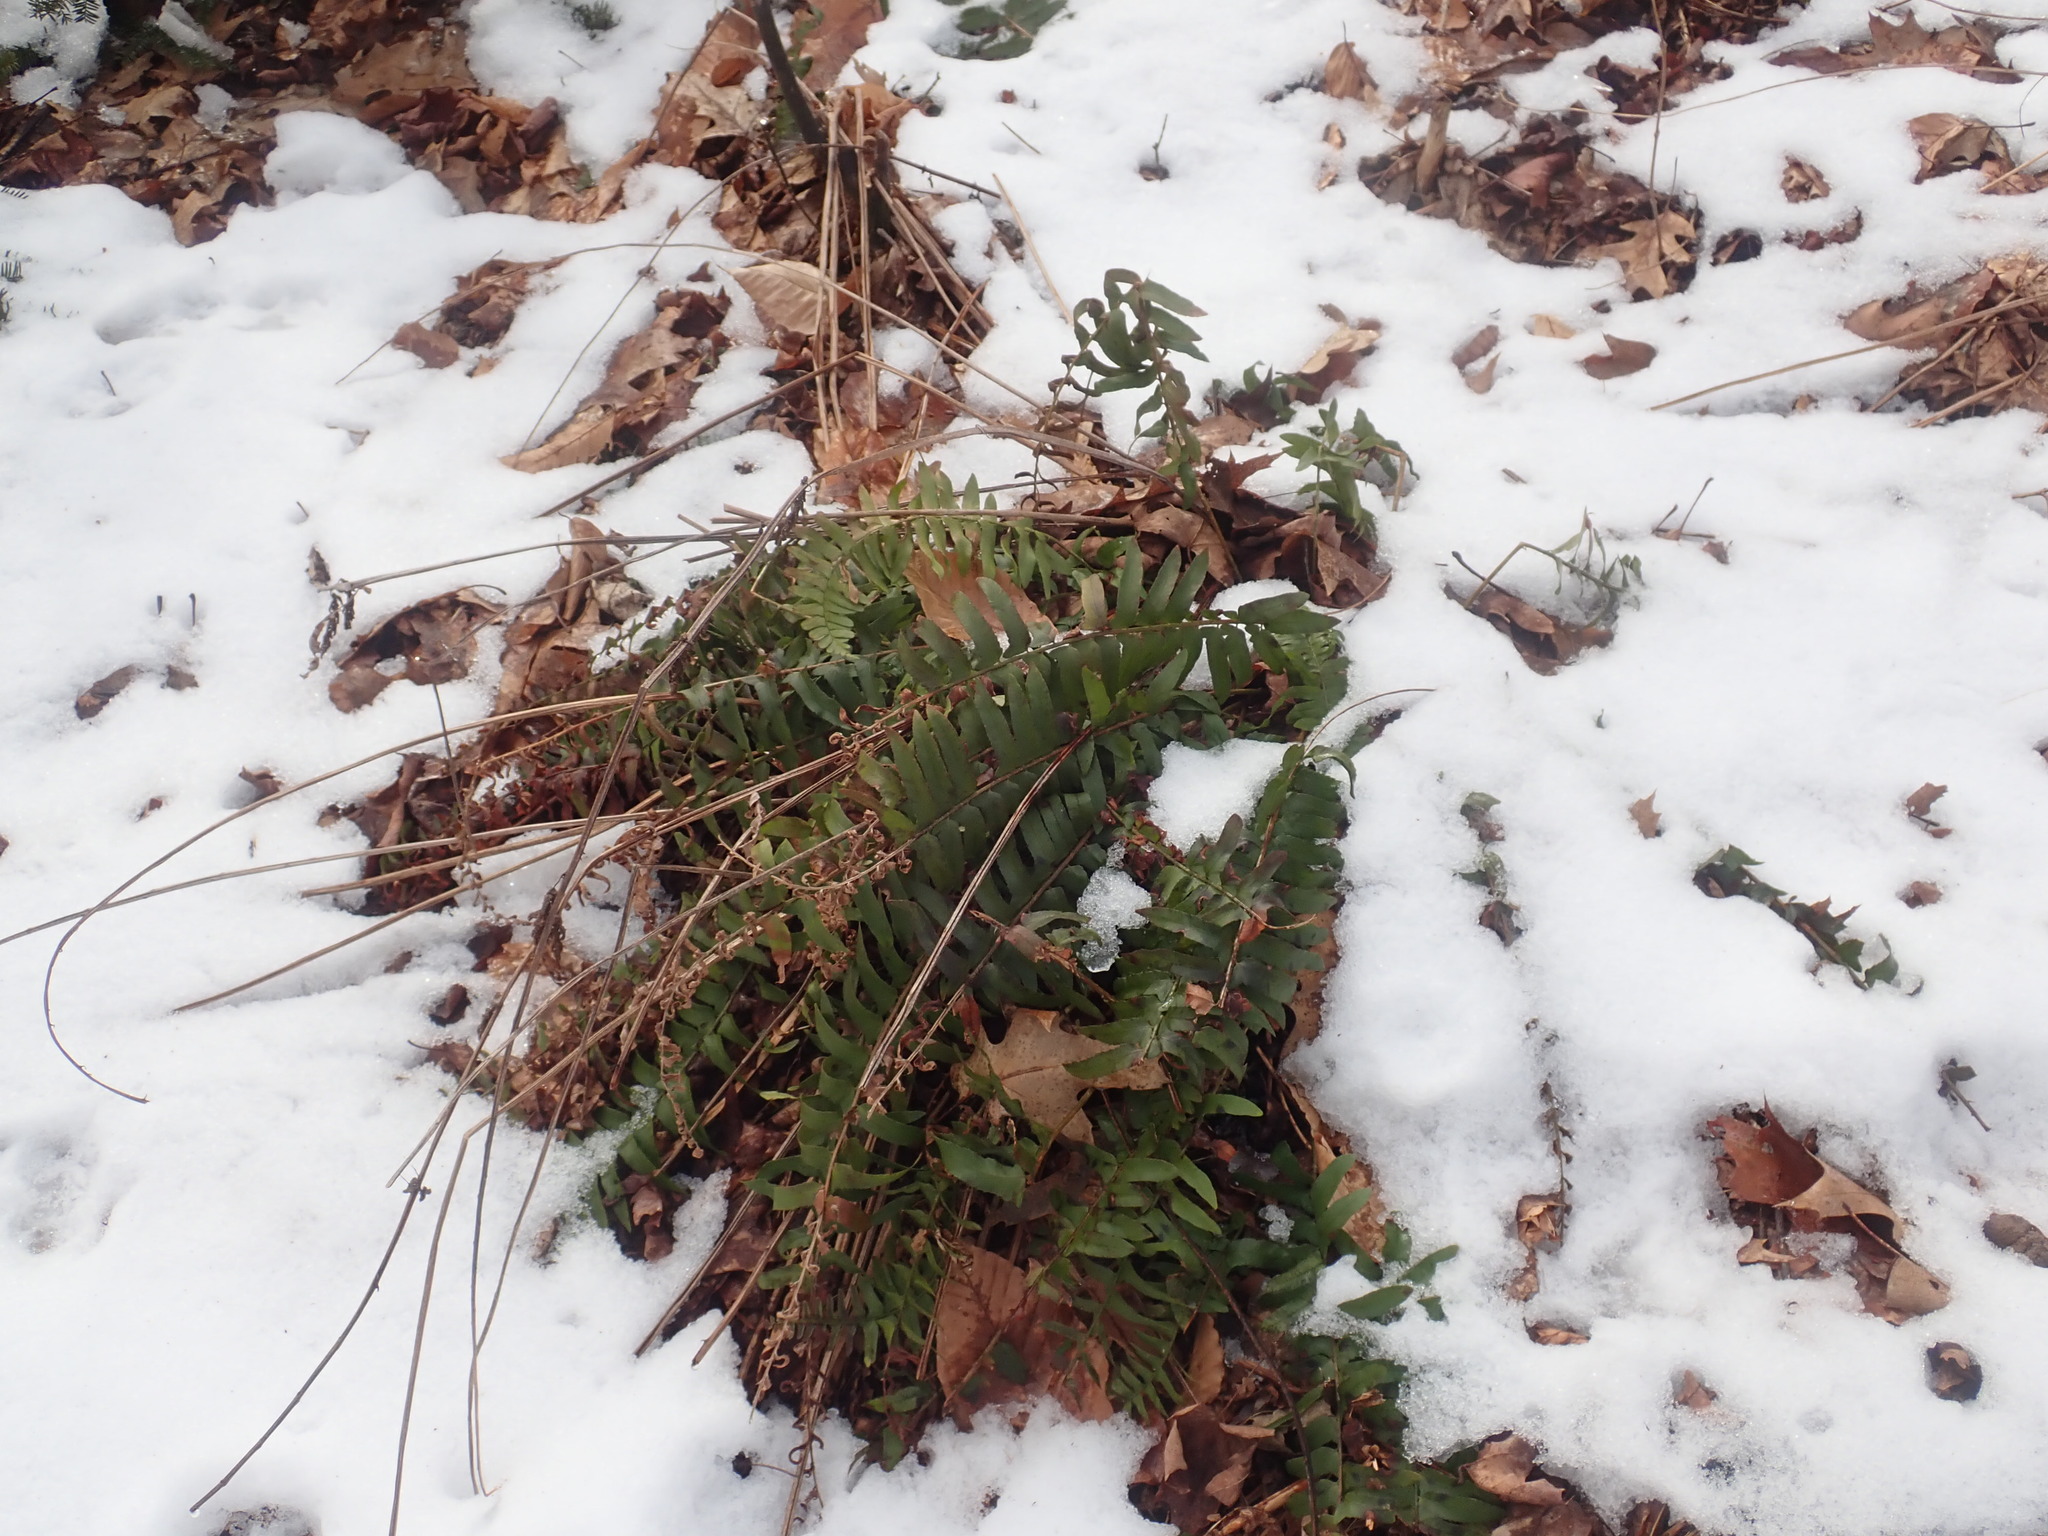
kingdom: Plantae
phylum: Tracheophyta
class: Polypodiopsida
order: Polypodiales
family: Dryopteridaceae
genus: Polystichum
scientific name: Polystichum acrostichoides
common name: Christmas fern
